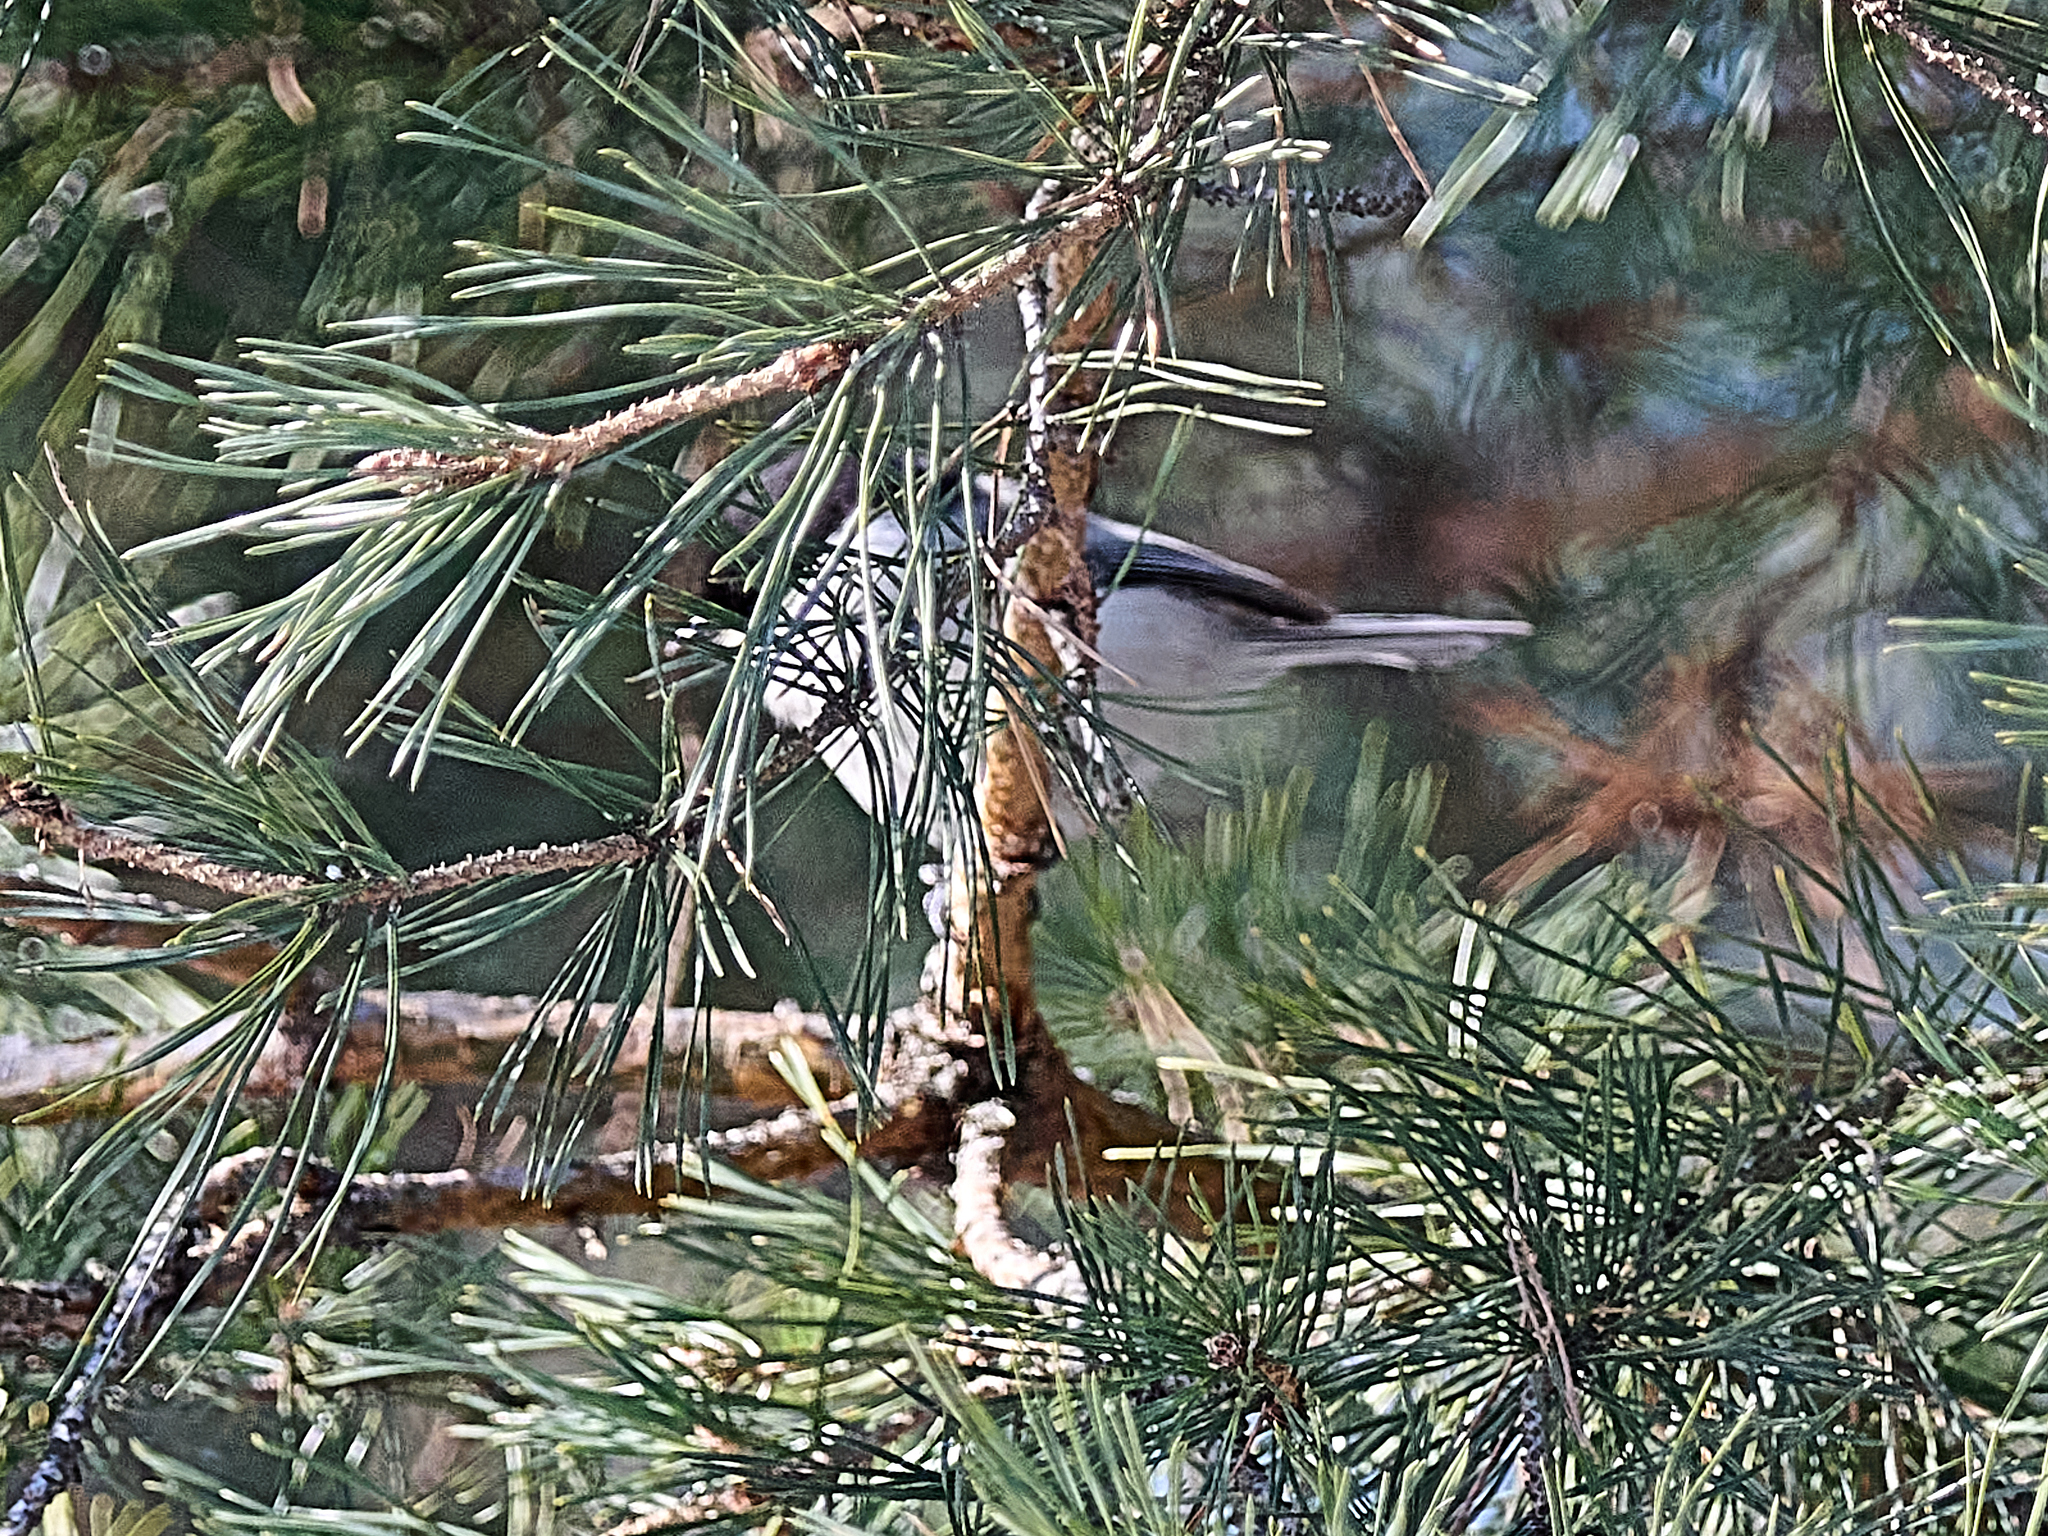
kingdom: Animalia
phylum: Chordata
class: Aves
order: Passeriformes
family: Paridae
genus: Poecile
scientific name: Poecile montanus
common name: Willow tit
